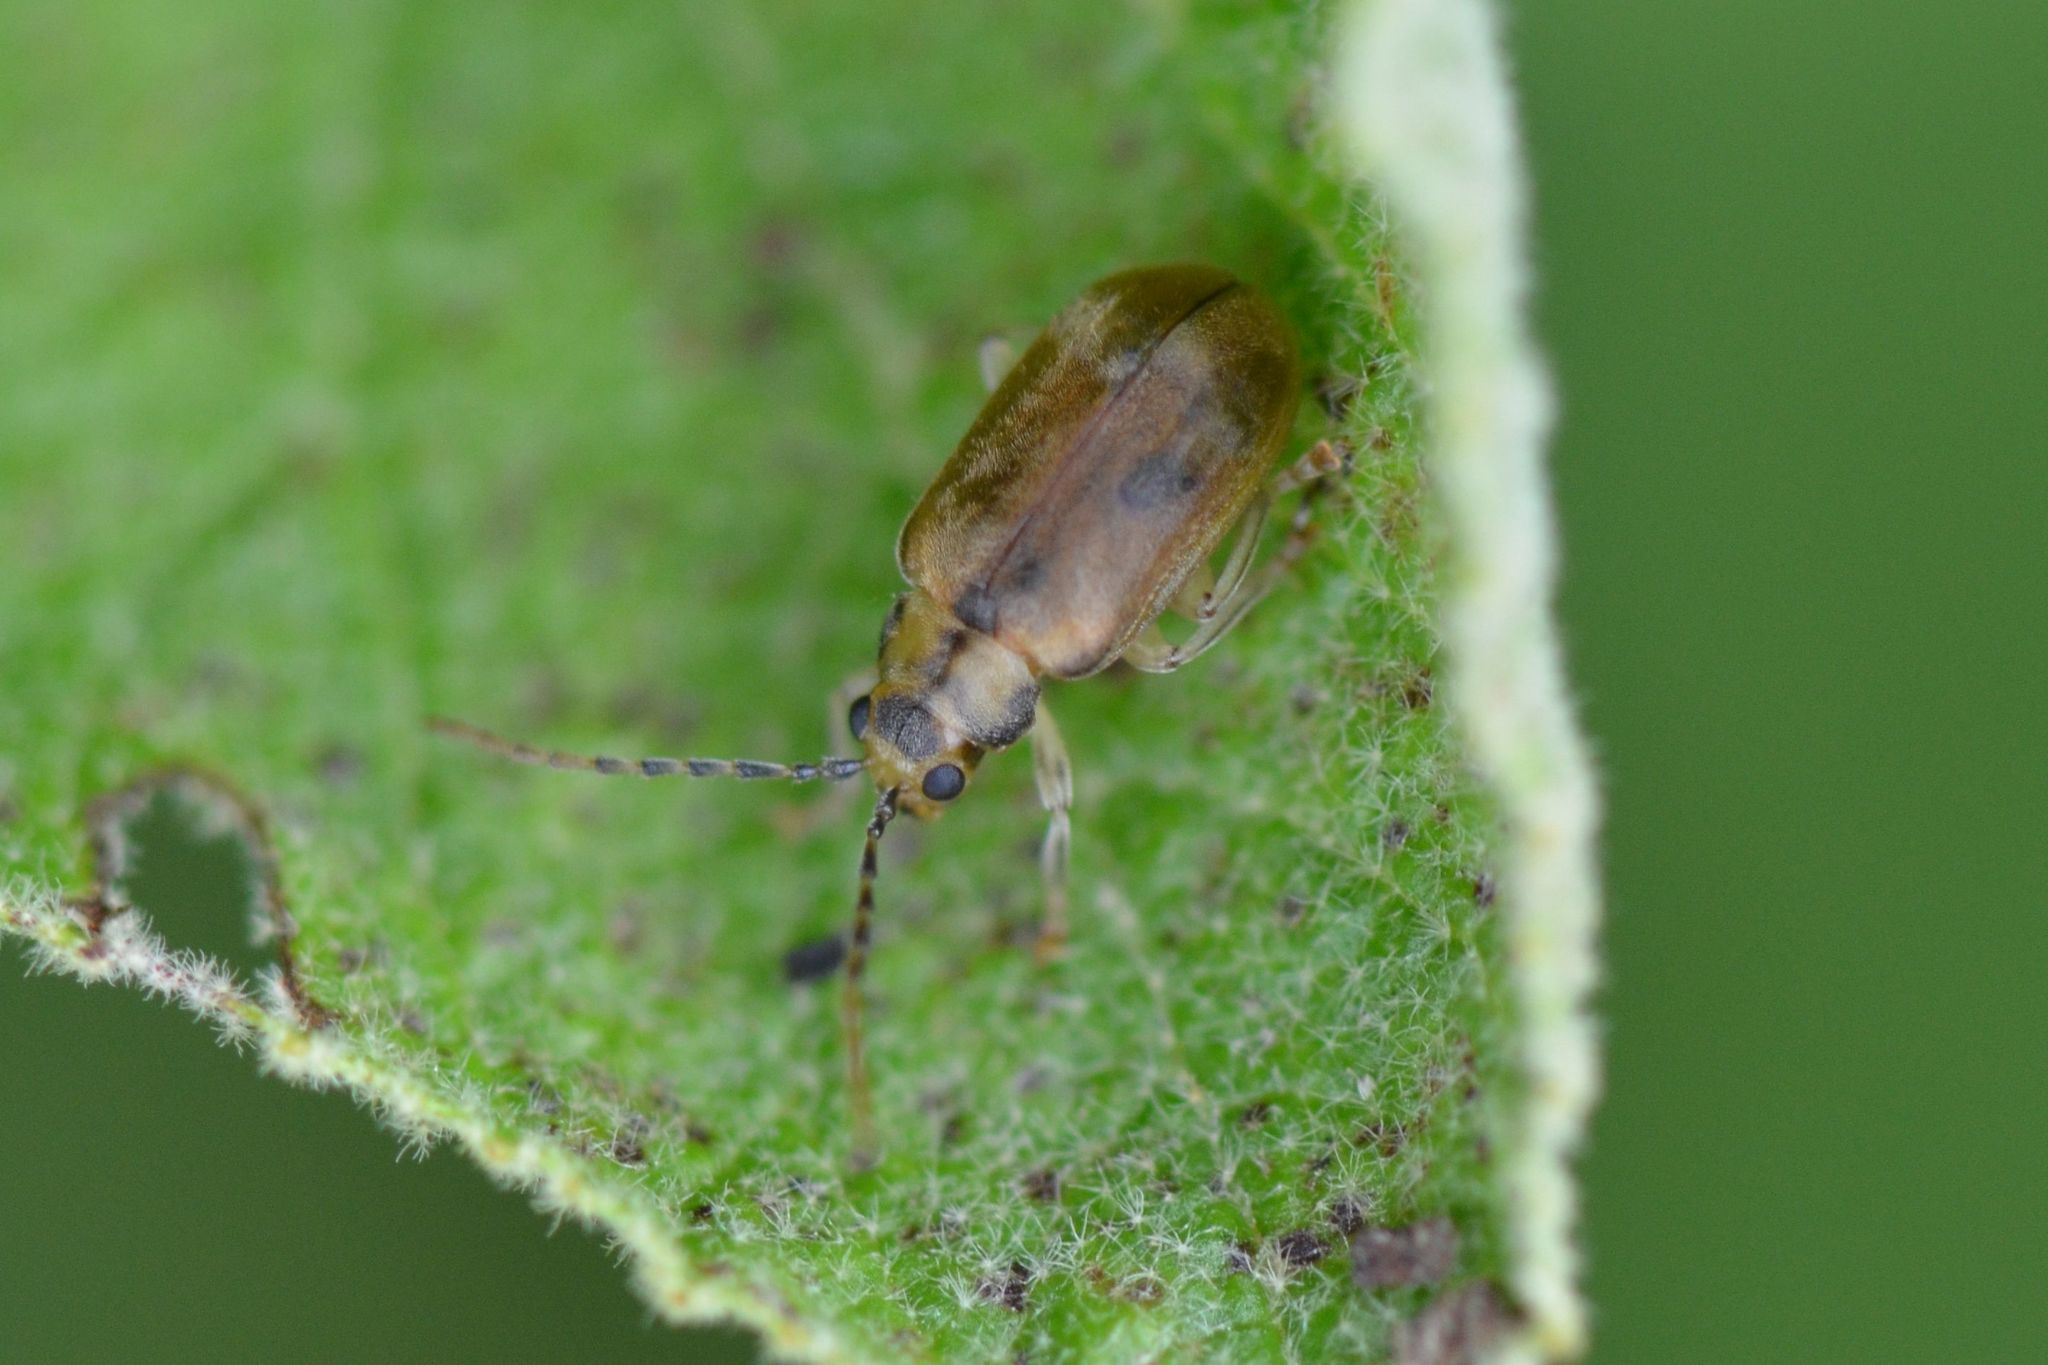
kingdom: Animalia
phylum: Arthropoda
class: Insecta
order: Coleoptera
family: Chrysomelidae
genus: Pyrrhalta
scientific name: Pyrrhalta viburni
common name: Guelder-rose leaf beetle
